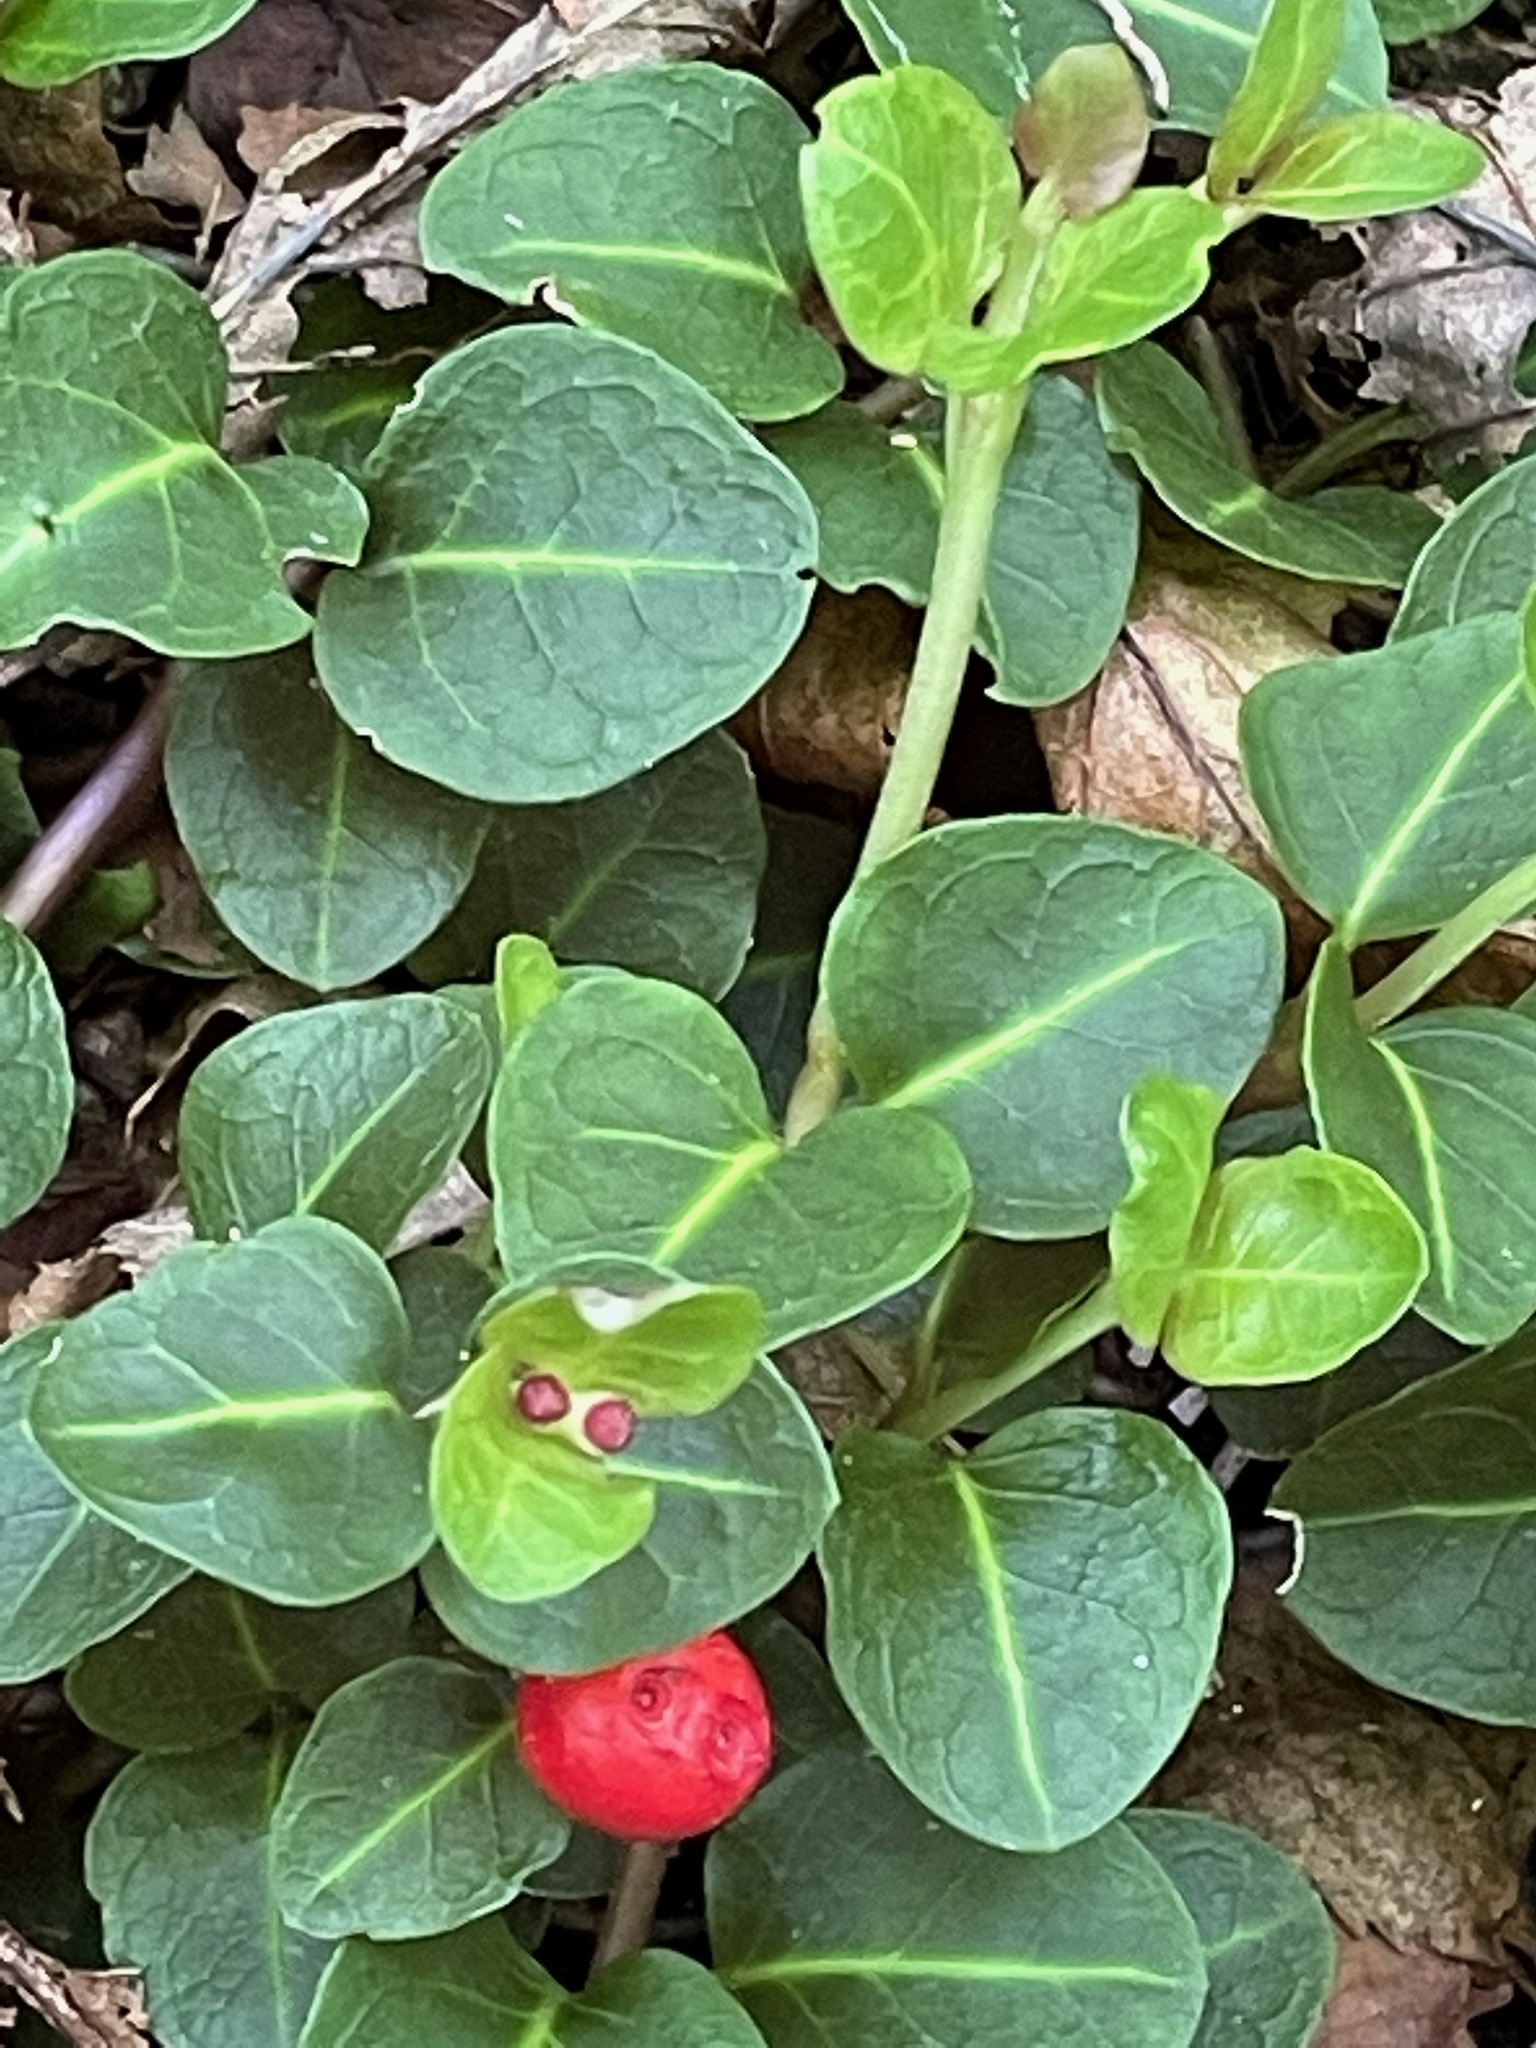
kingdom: Plantae
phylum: Tracheophyta
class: Magnoliopsida
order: Gentianales
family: Rubiaceae
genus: Mitchella
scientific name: Mitchella repens
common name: Partridge-berry
